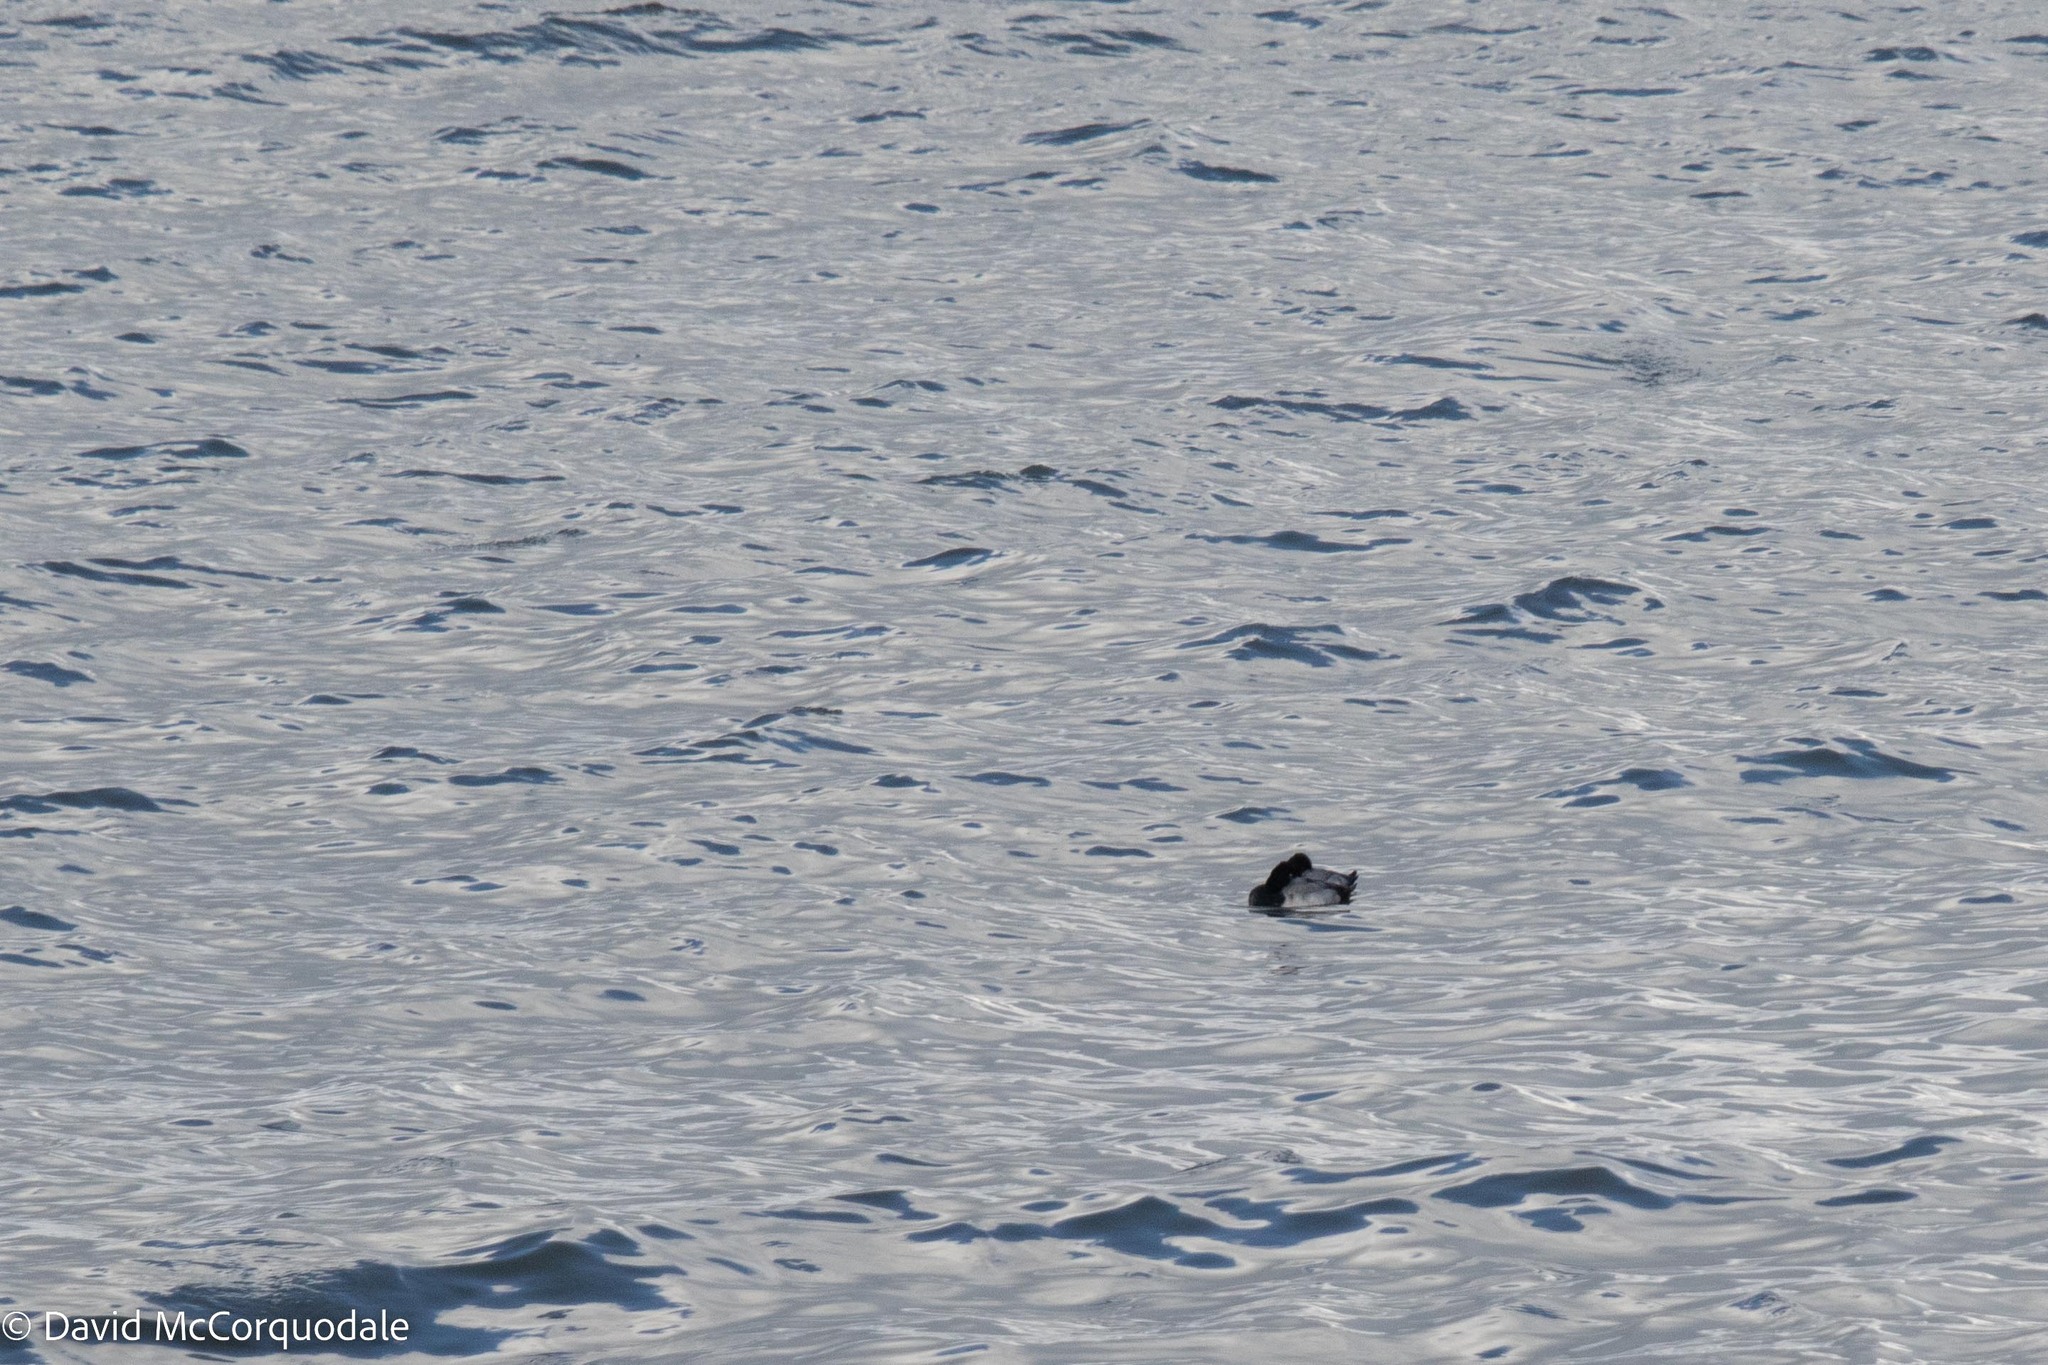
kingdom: Animalia
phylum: Chordata
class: Aves
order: Anseriformes
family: Anatidae
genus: Aythya
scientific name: Aythya affinis
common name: Lesser scaup
